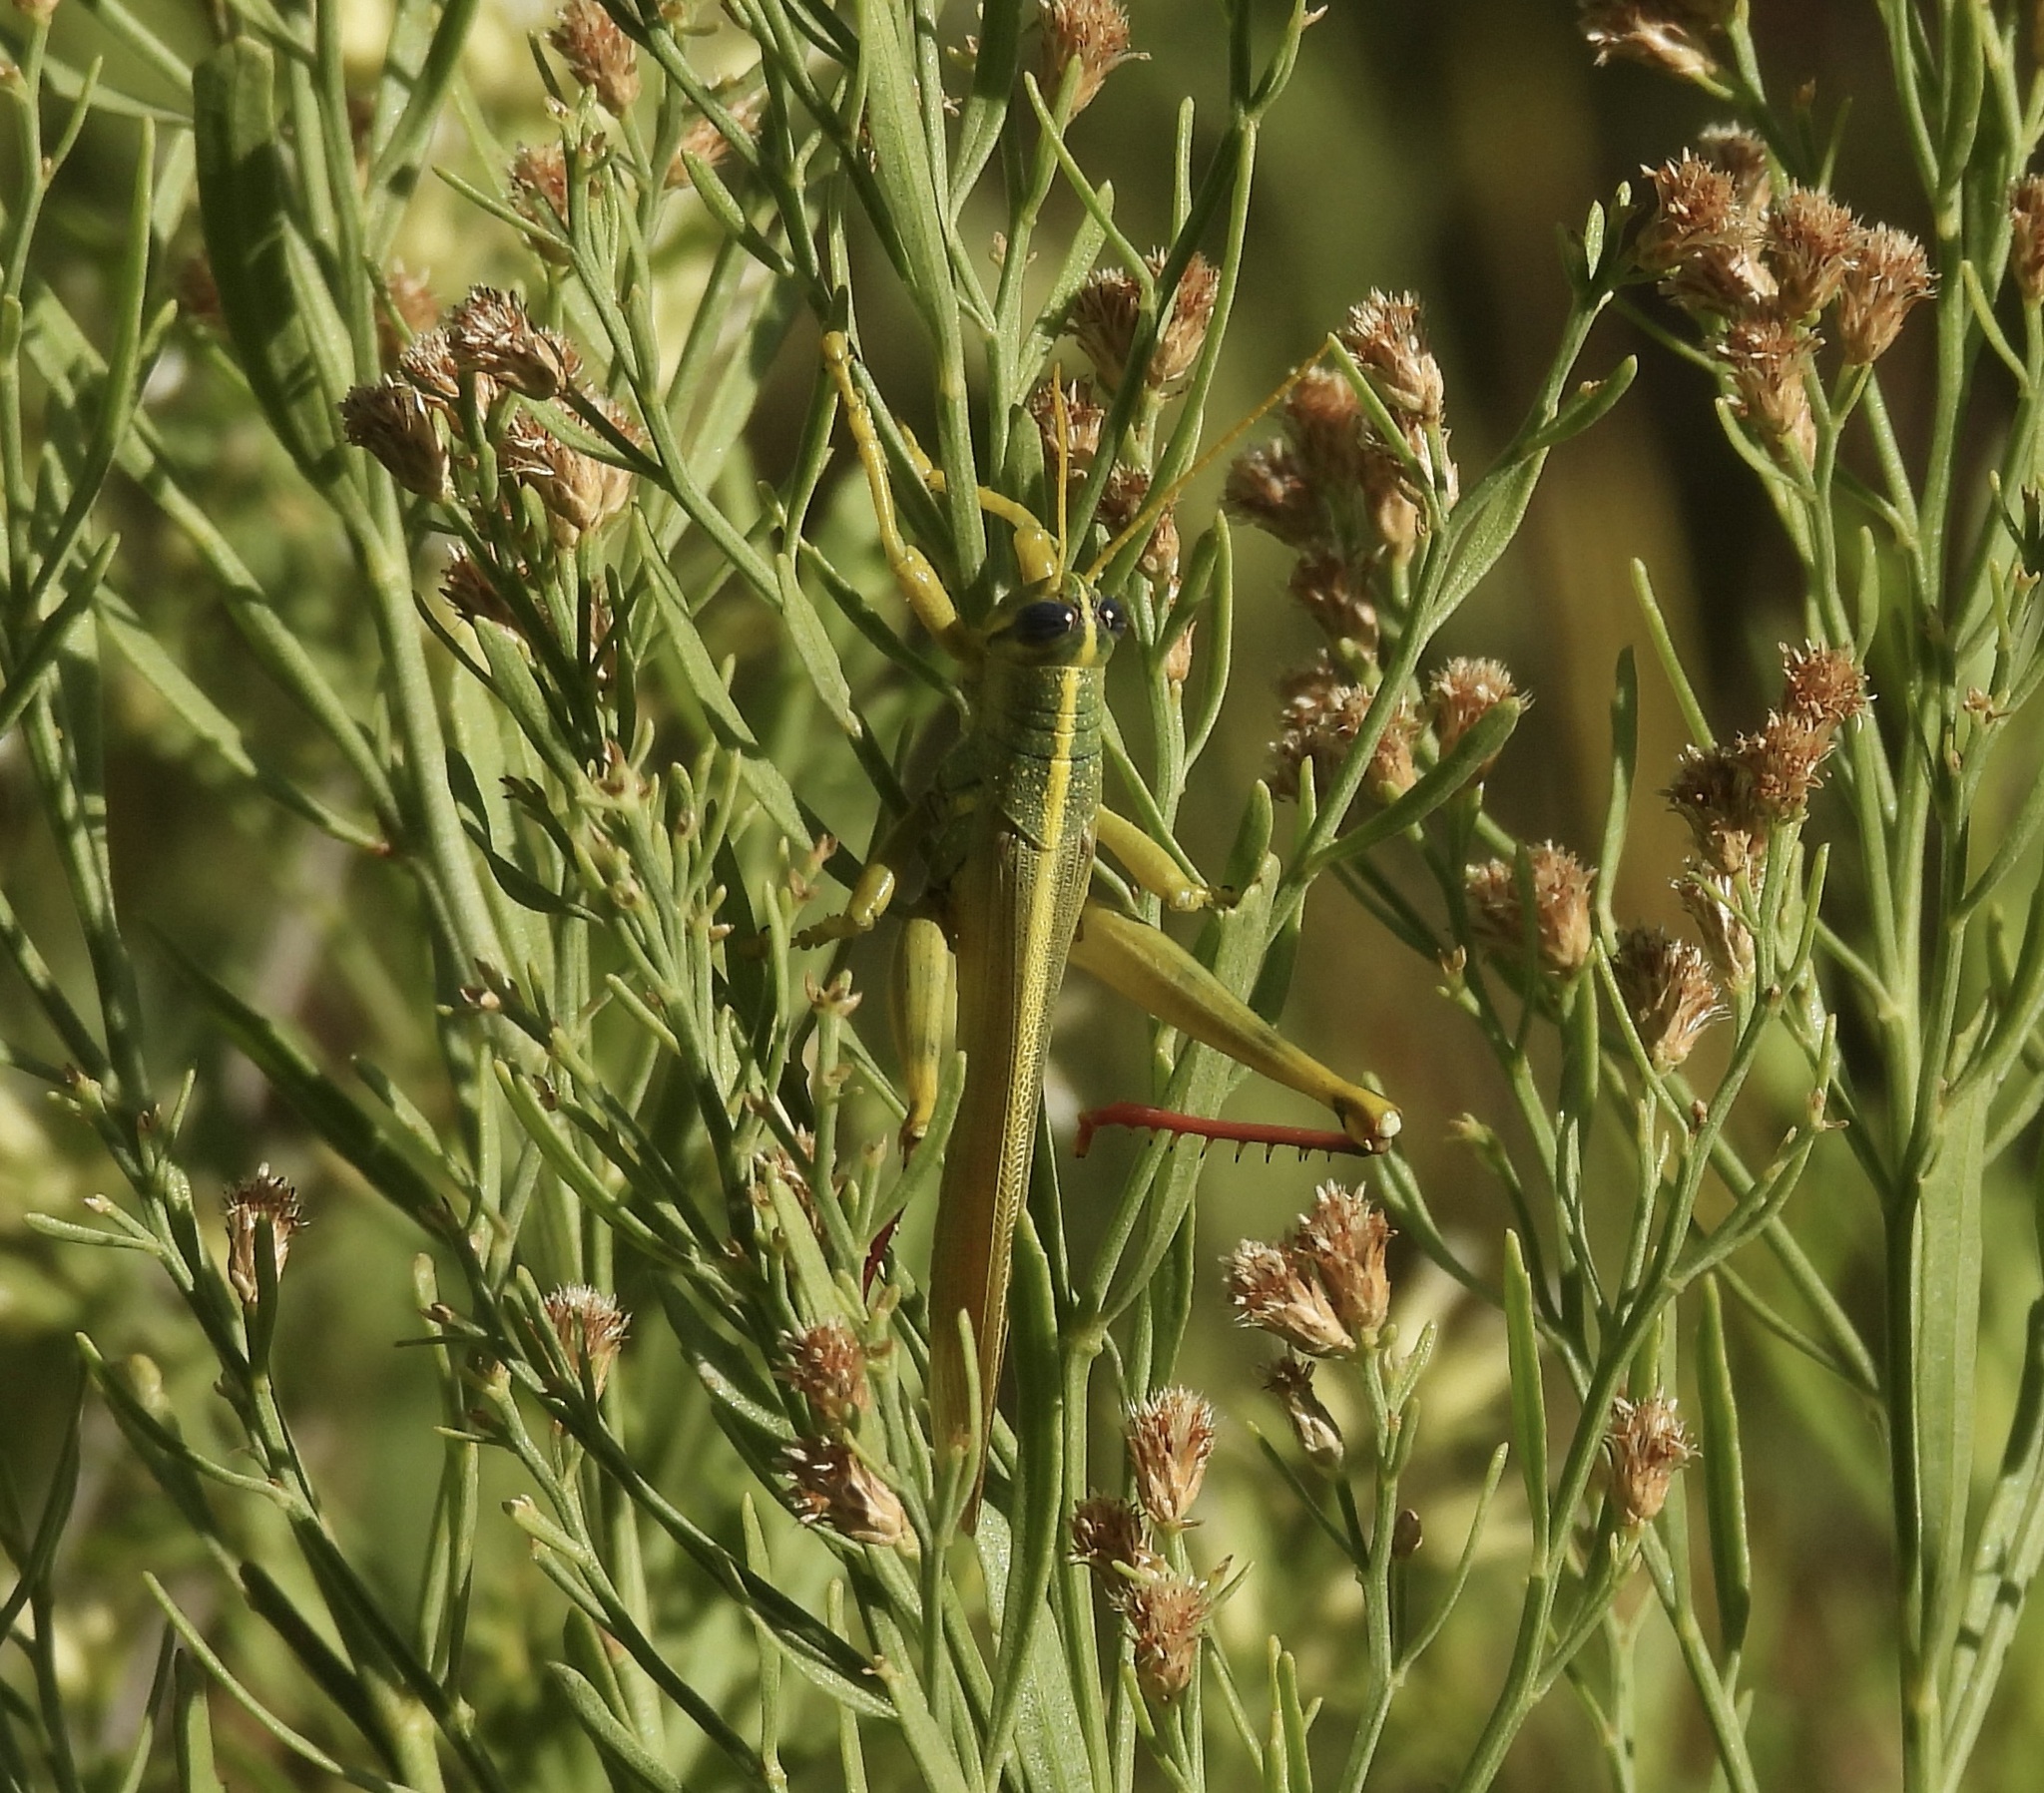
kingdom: Animalia
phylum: Arthropoda
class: Insecta
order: Orthoptera
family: Acrididae
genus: Schistocerca
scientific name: Schistocerca lineata
